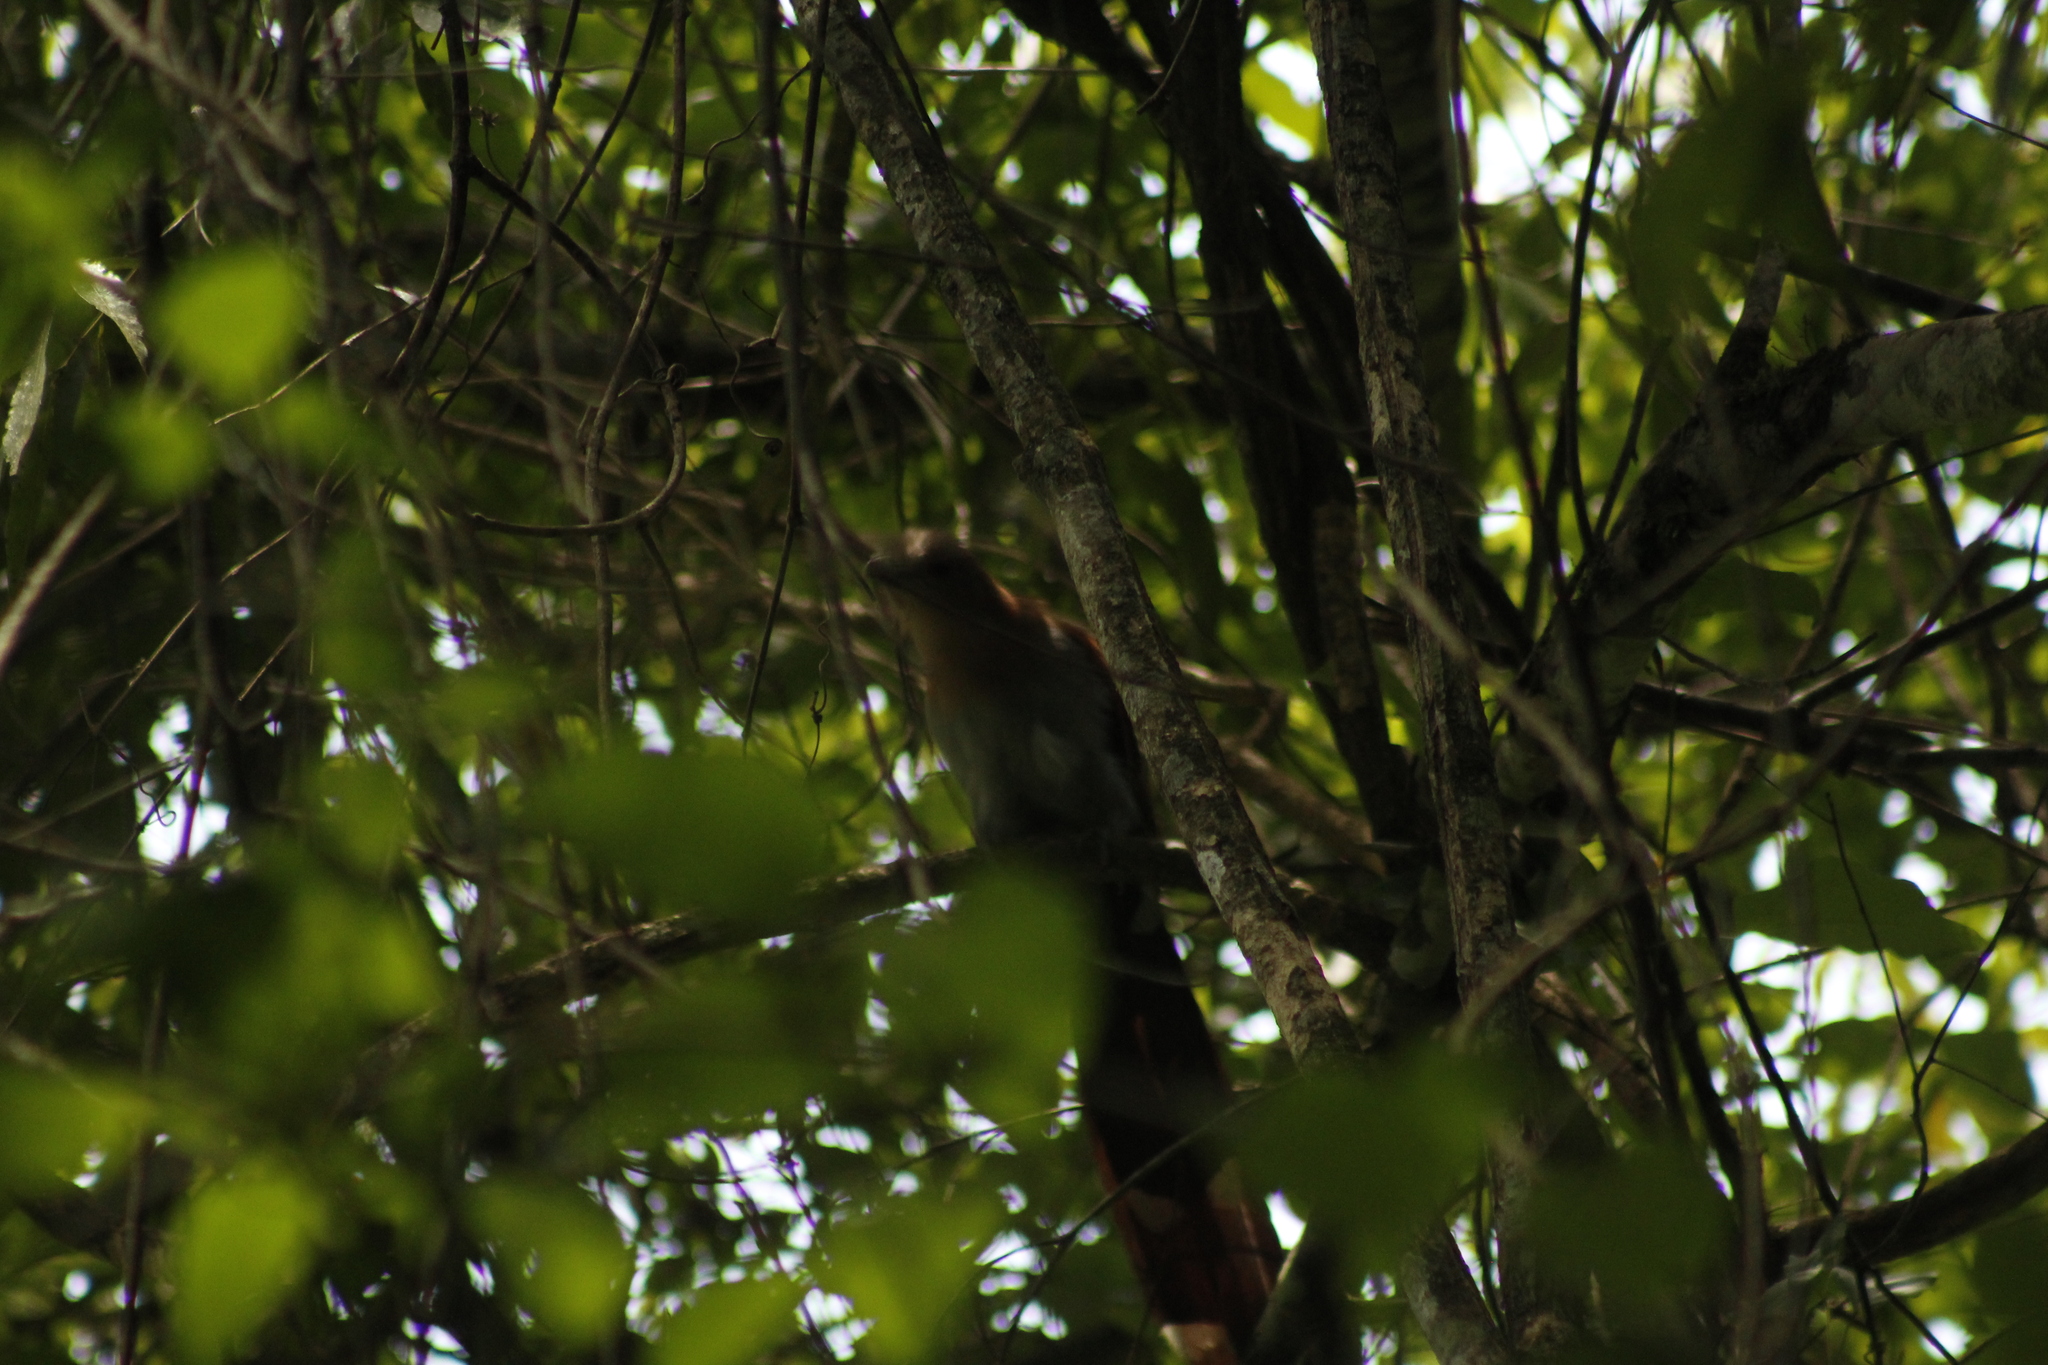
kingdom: Animalia
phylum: Chordata
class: Aves
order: Cuculiformes
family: Cuculidae
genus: Piaya
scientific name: Piaya cayana
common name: Squirrel cuckoo
